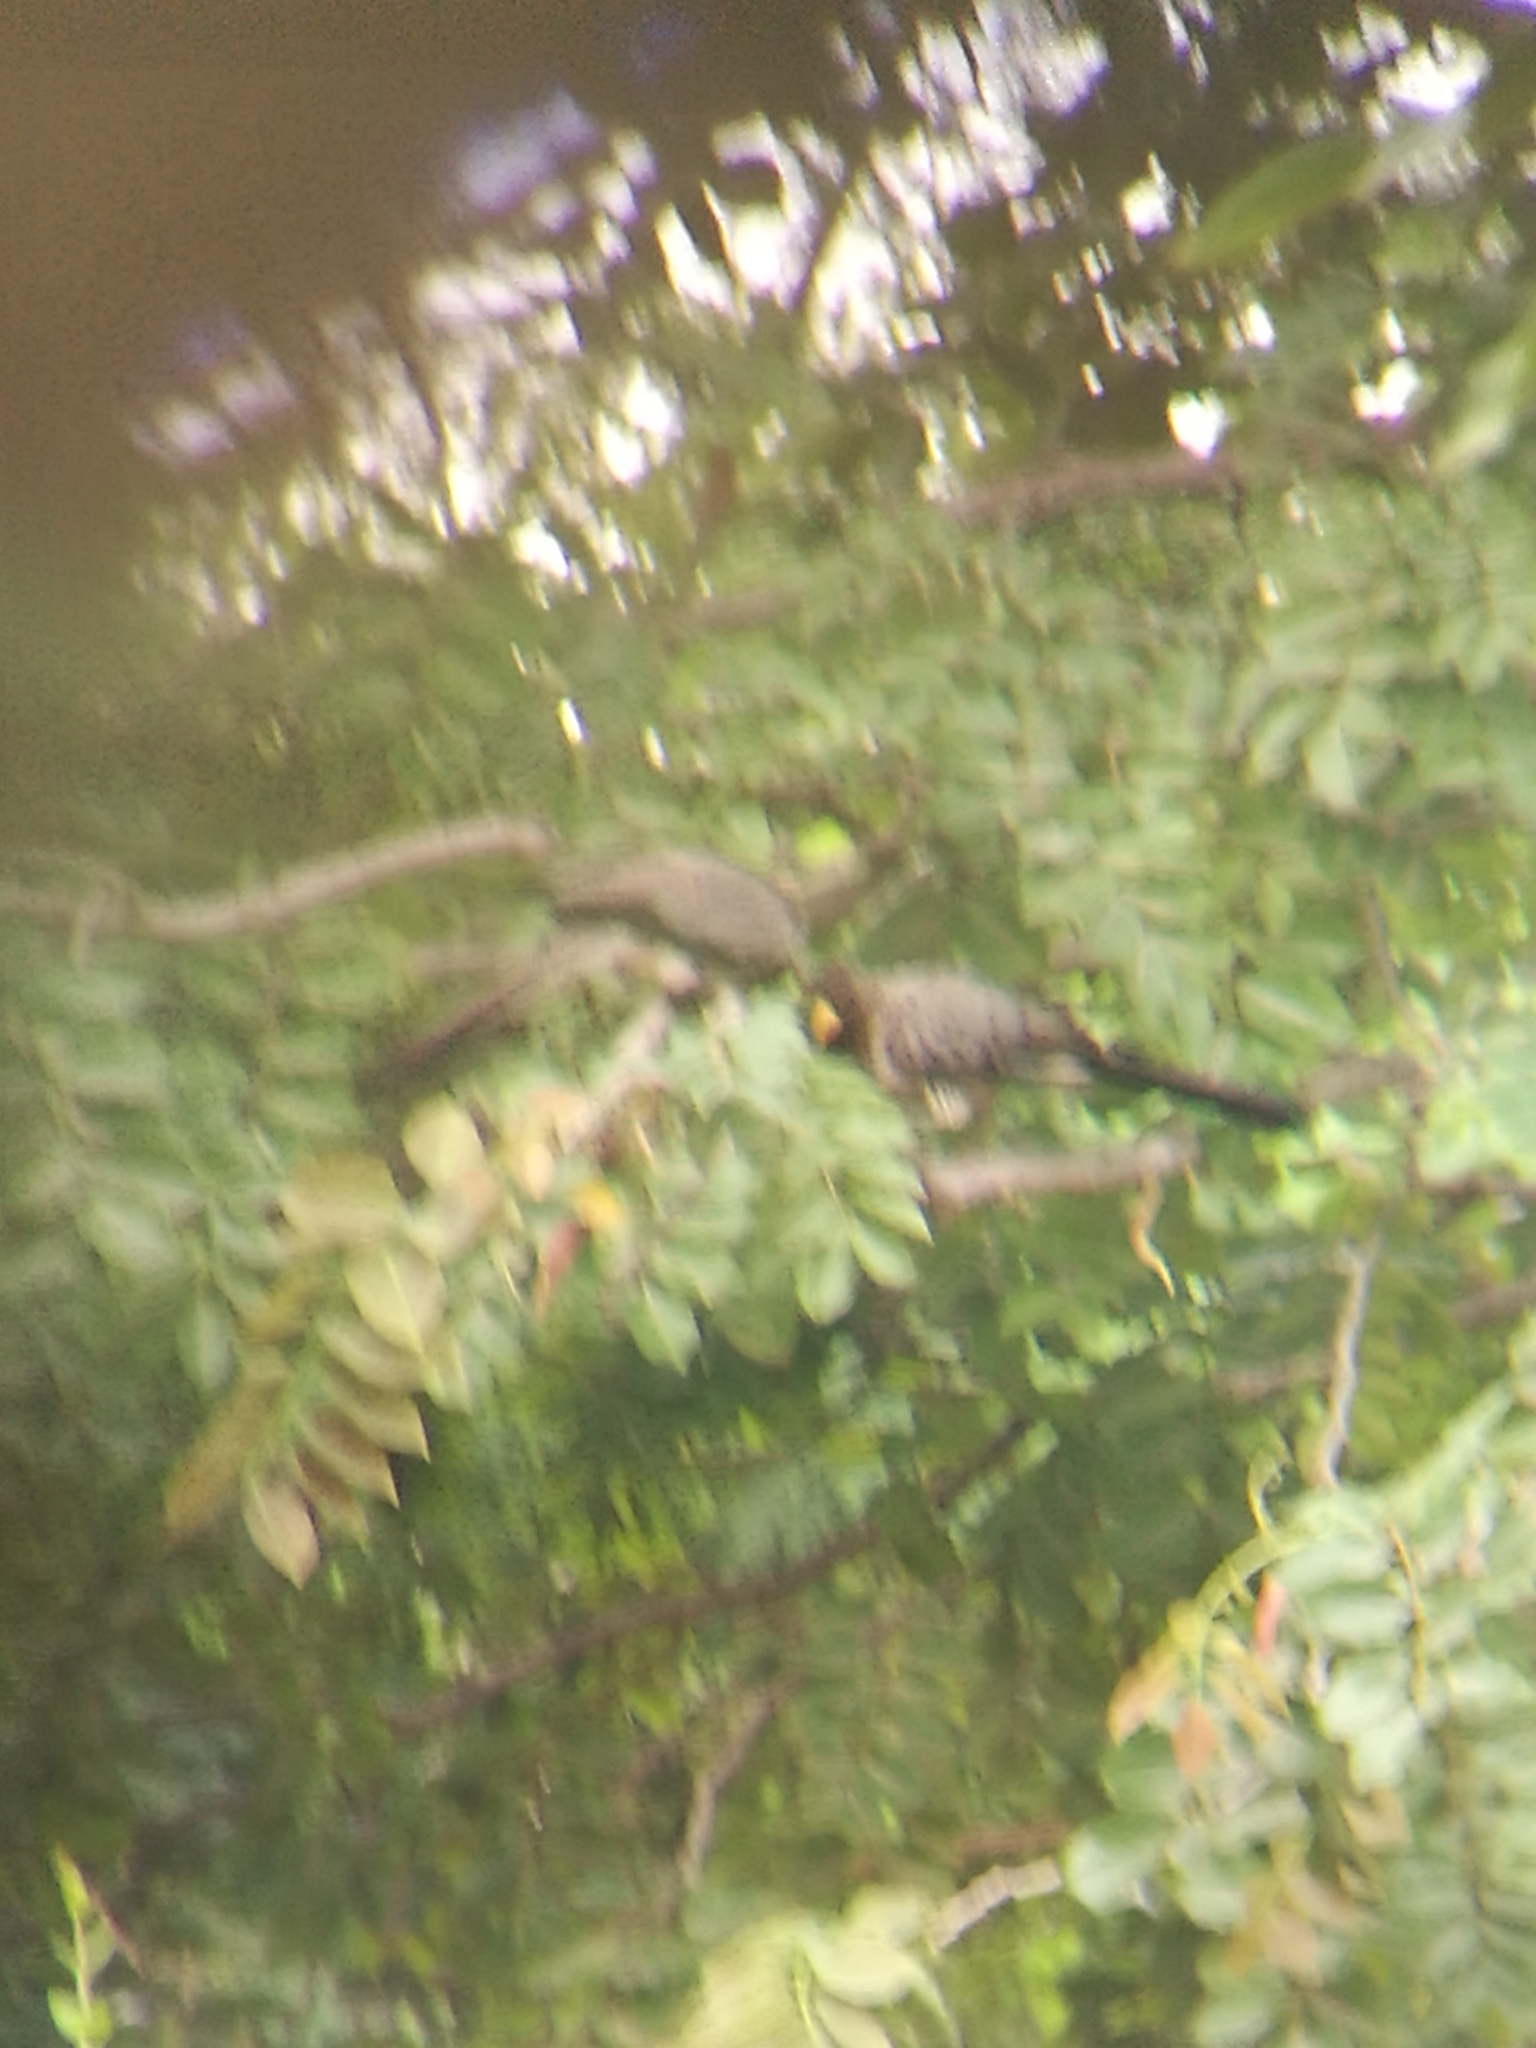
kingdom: Animalia
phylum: Chordata
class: Aves
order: Musophagiformes
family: Musophagidae
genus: Crinifer
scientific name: Crinifer piscator
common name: Western plantain-eater
